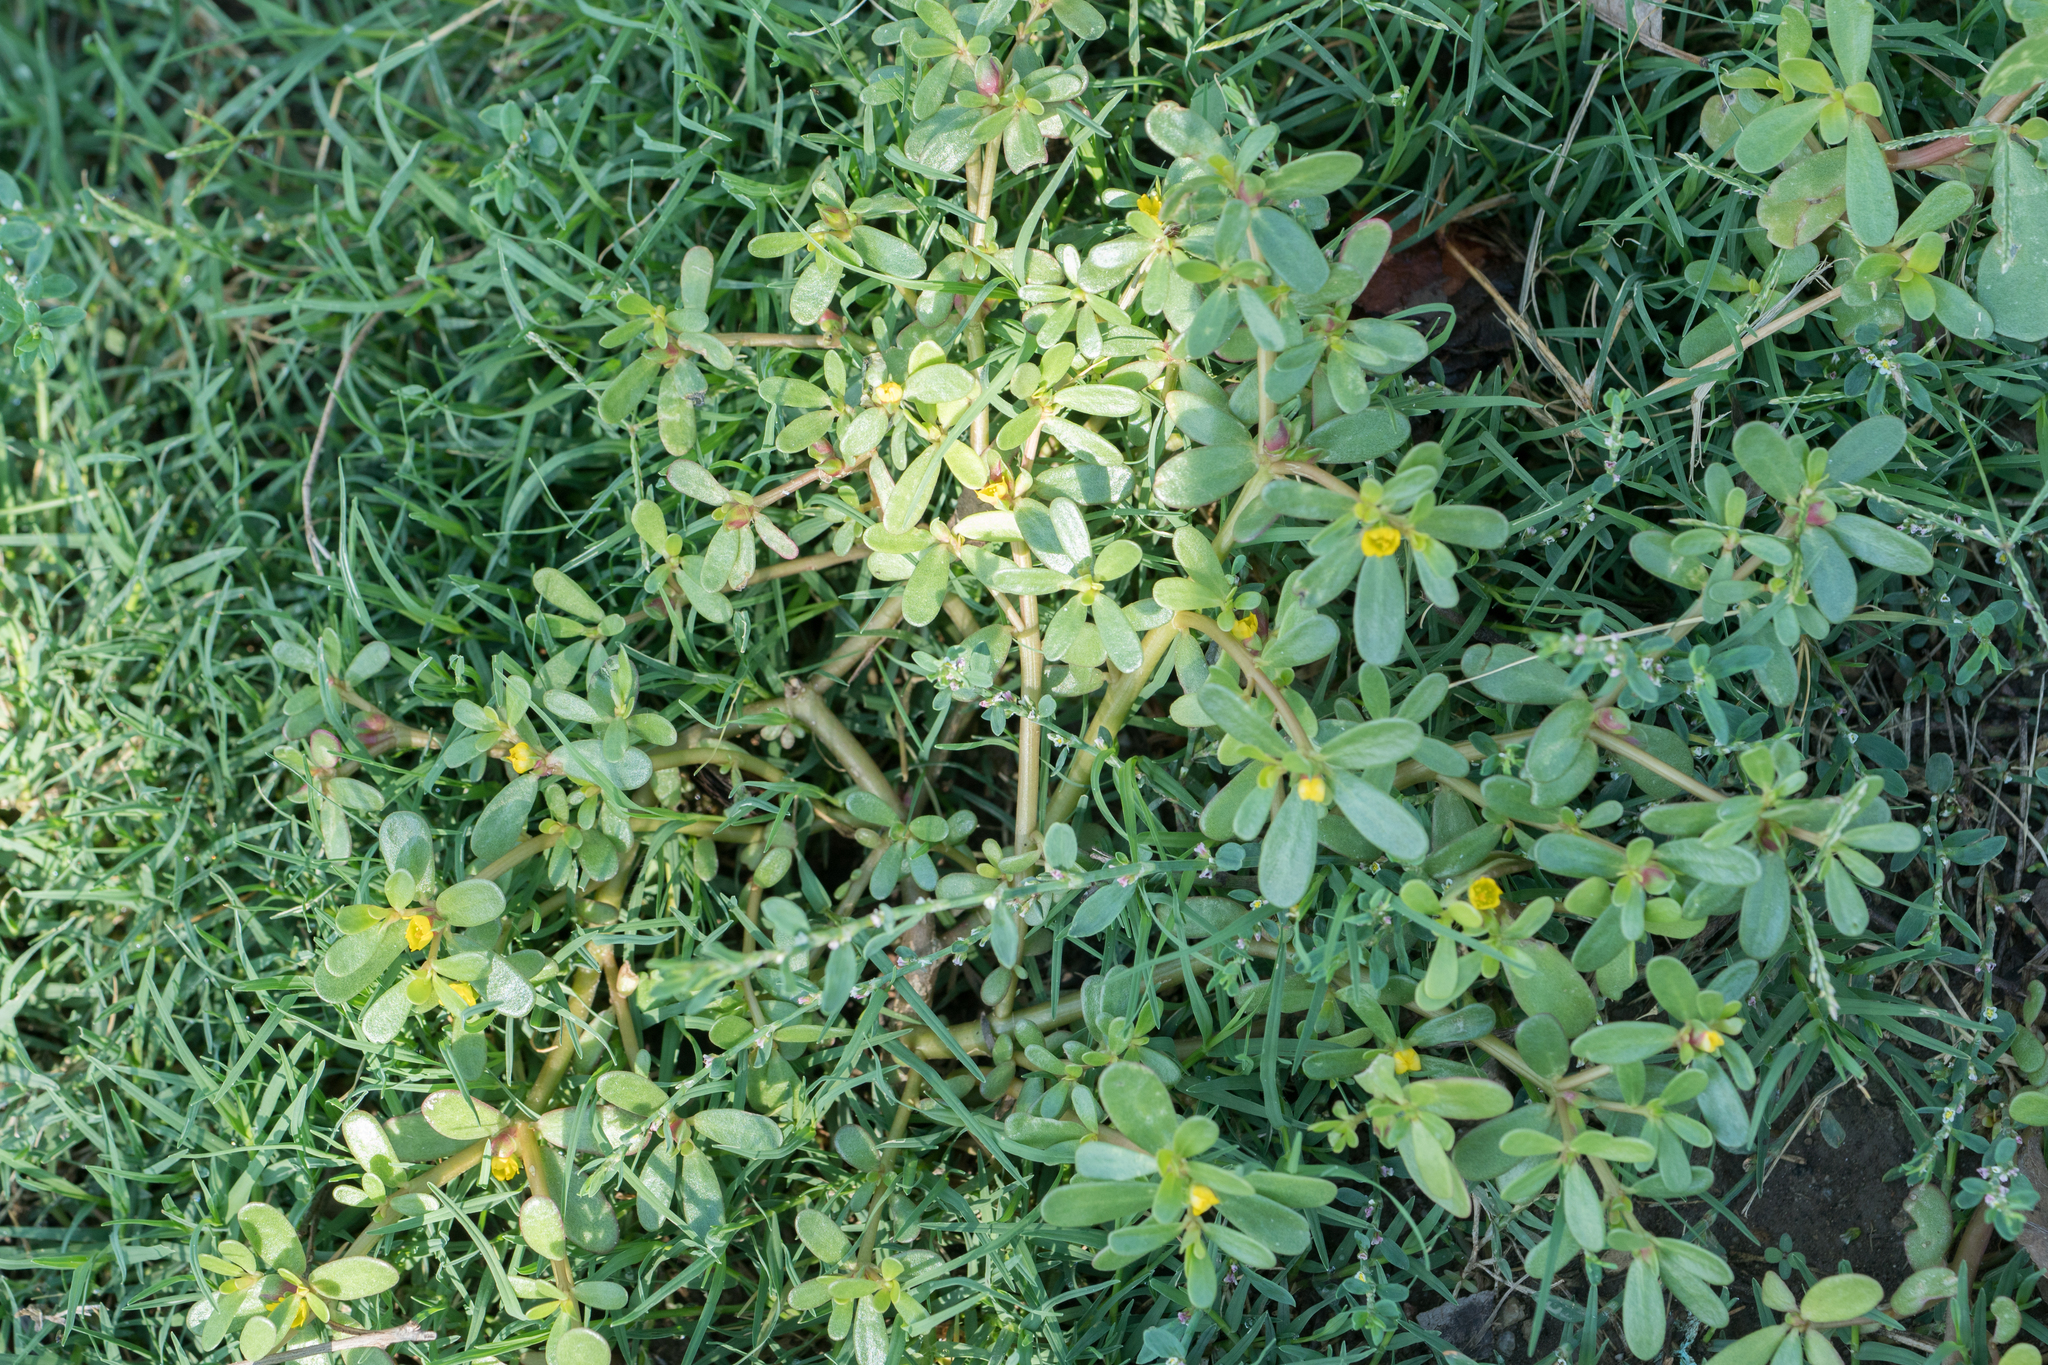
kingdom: Plantae
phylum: Tracheophyta
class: Magnoliopsida
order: Caryophyllales
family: Portulacaceae
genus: Portulaca
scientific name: Portulaca oleracea
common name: Common purslane
